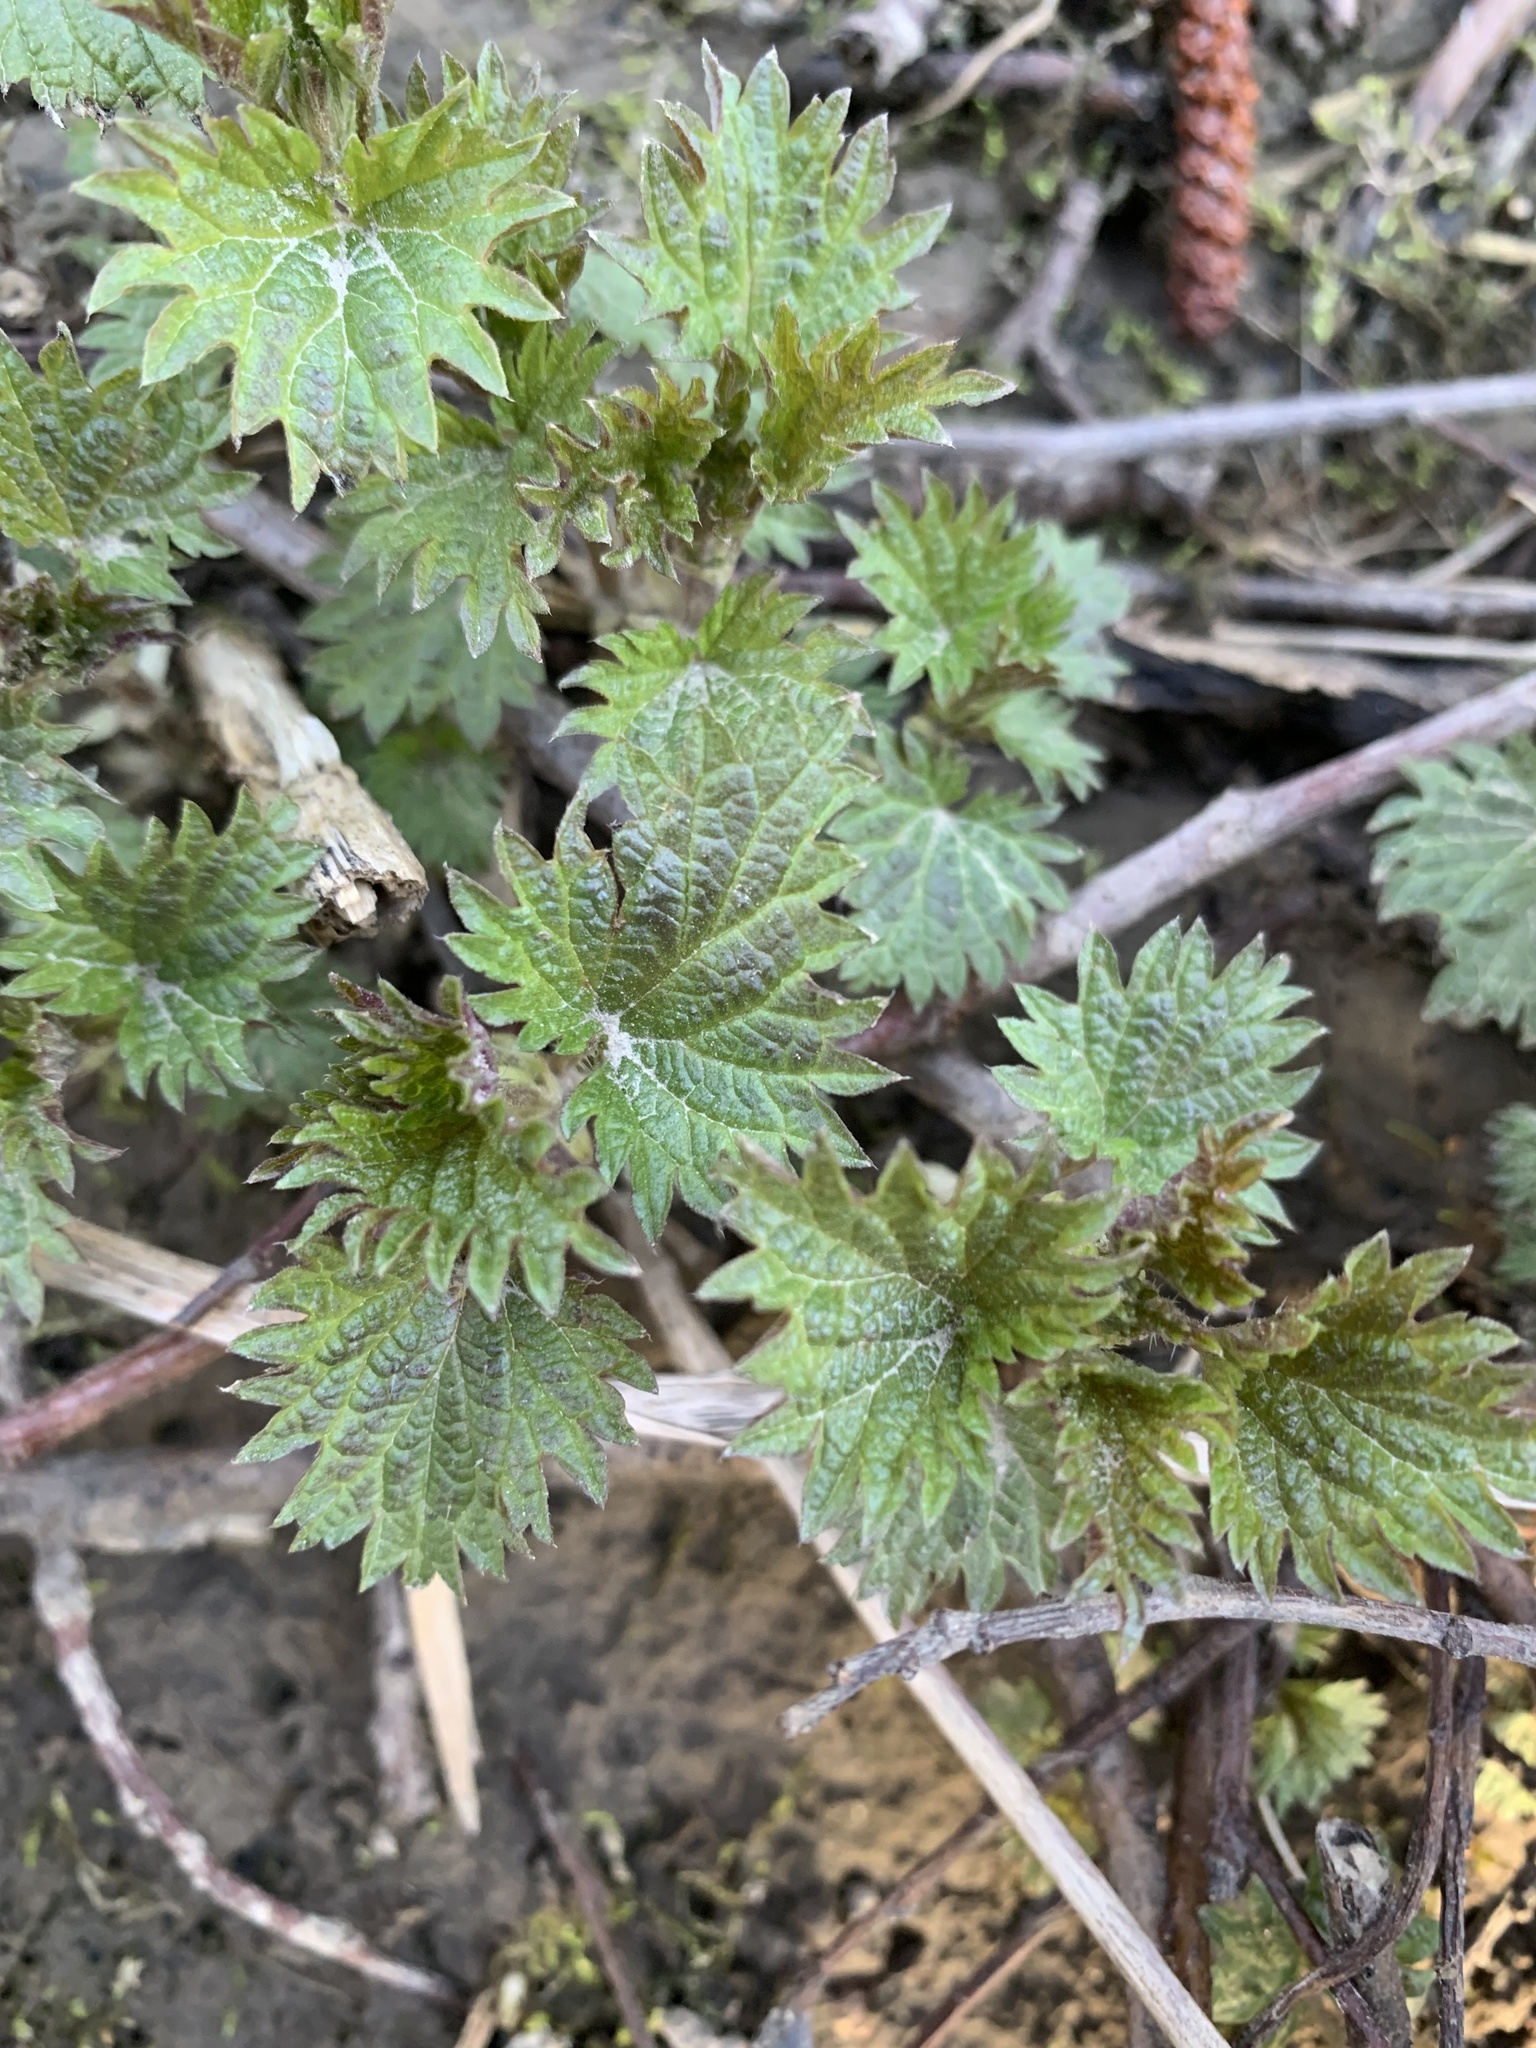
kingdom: Plantae
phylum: Tracheophyta
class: Magnoliopsida
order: Rosales
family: Urticaceae
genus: Urtica
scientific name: Urtica dioica
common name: Common nettle
